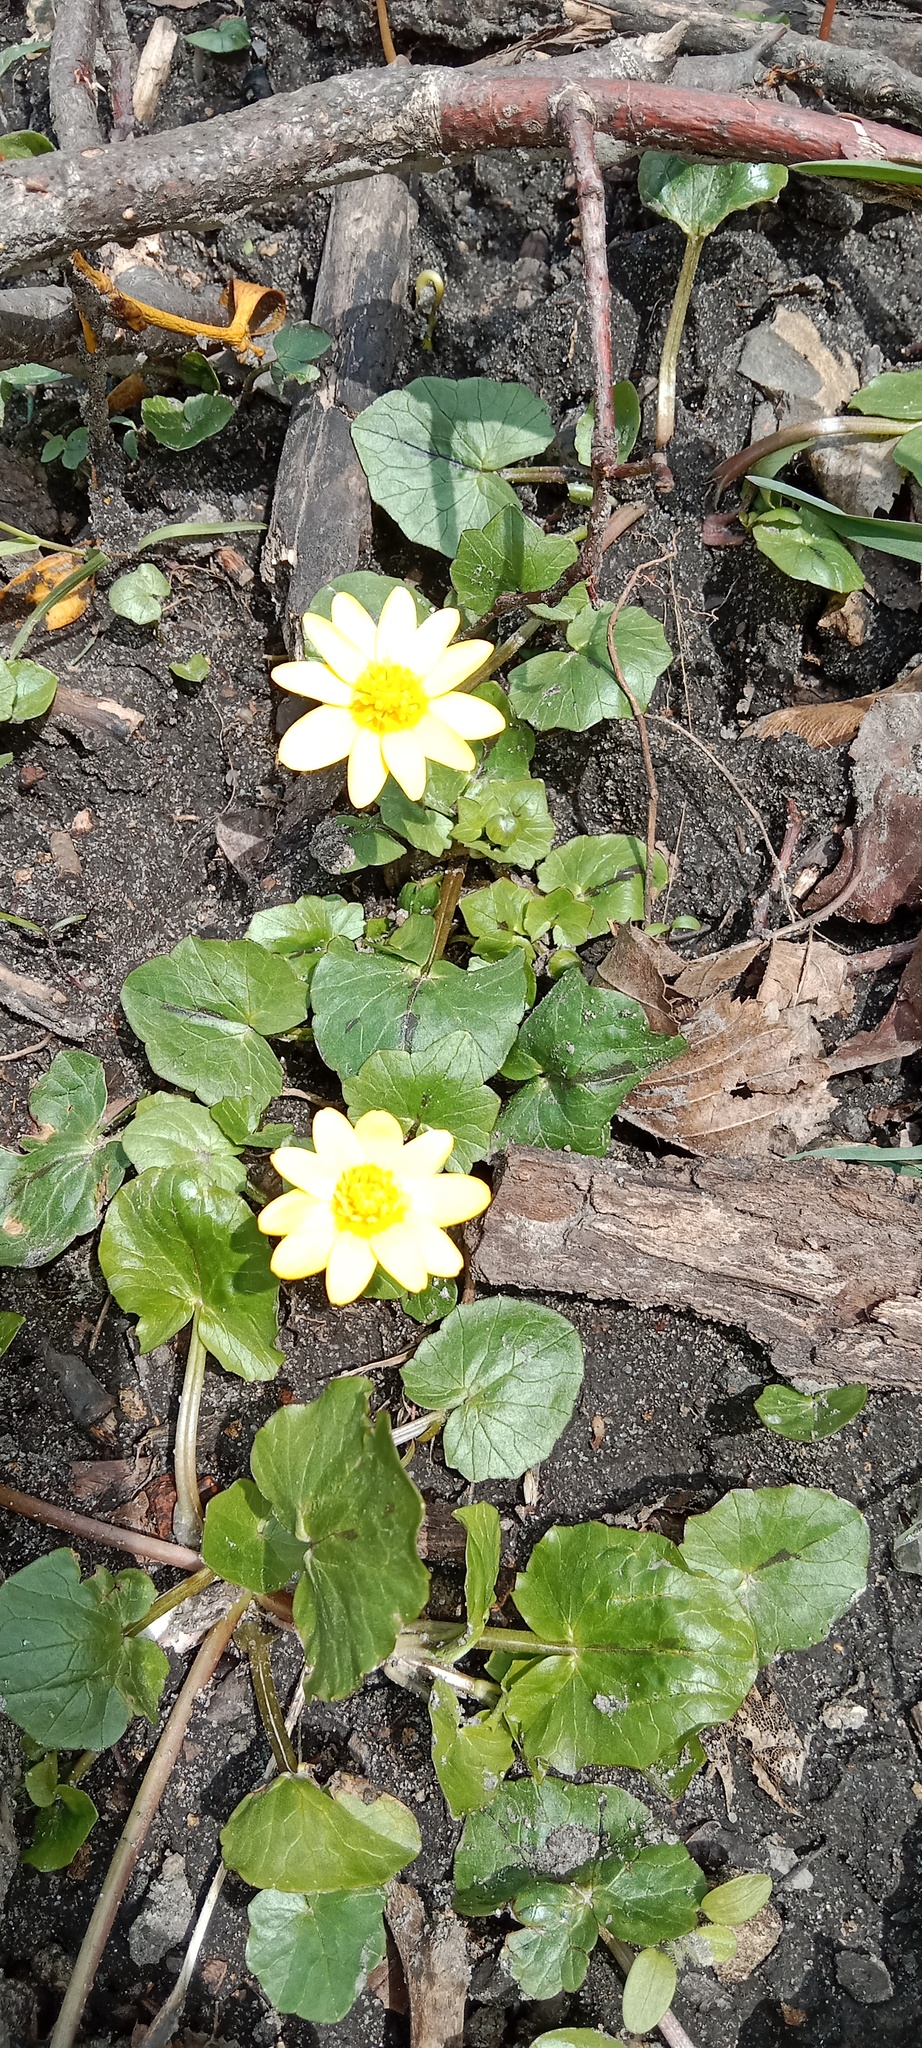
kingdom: Plantae
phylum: Tracheophyta
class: Magnoliopsida
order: Ranunculales
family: Ranunculaceae
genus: Ficaria
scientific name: Ficaria verna
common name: Lesser celandine
